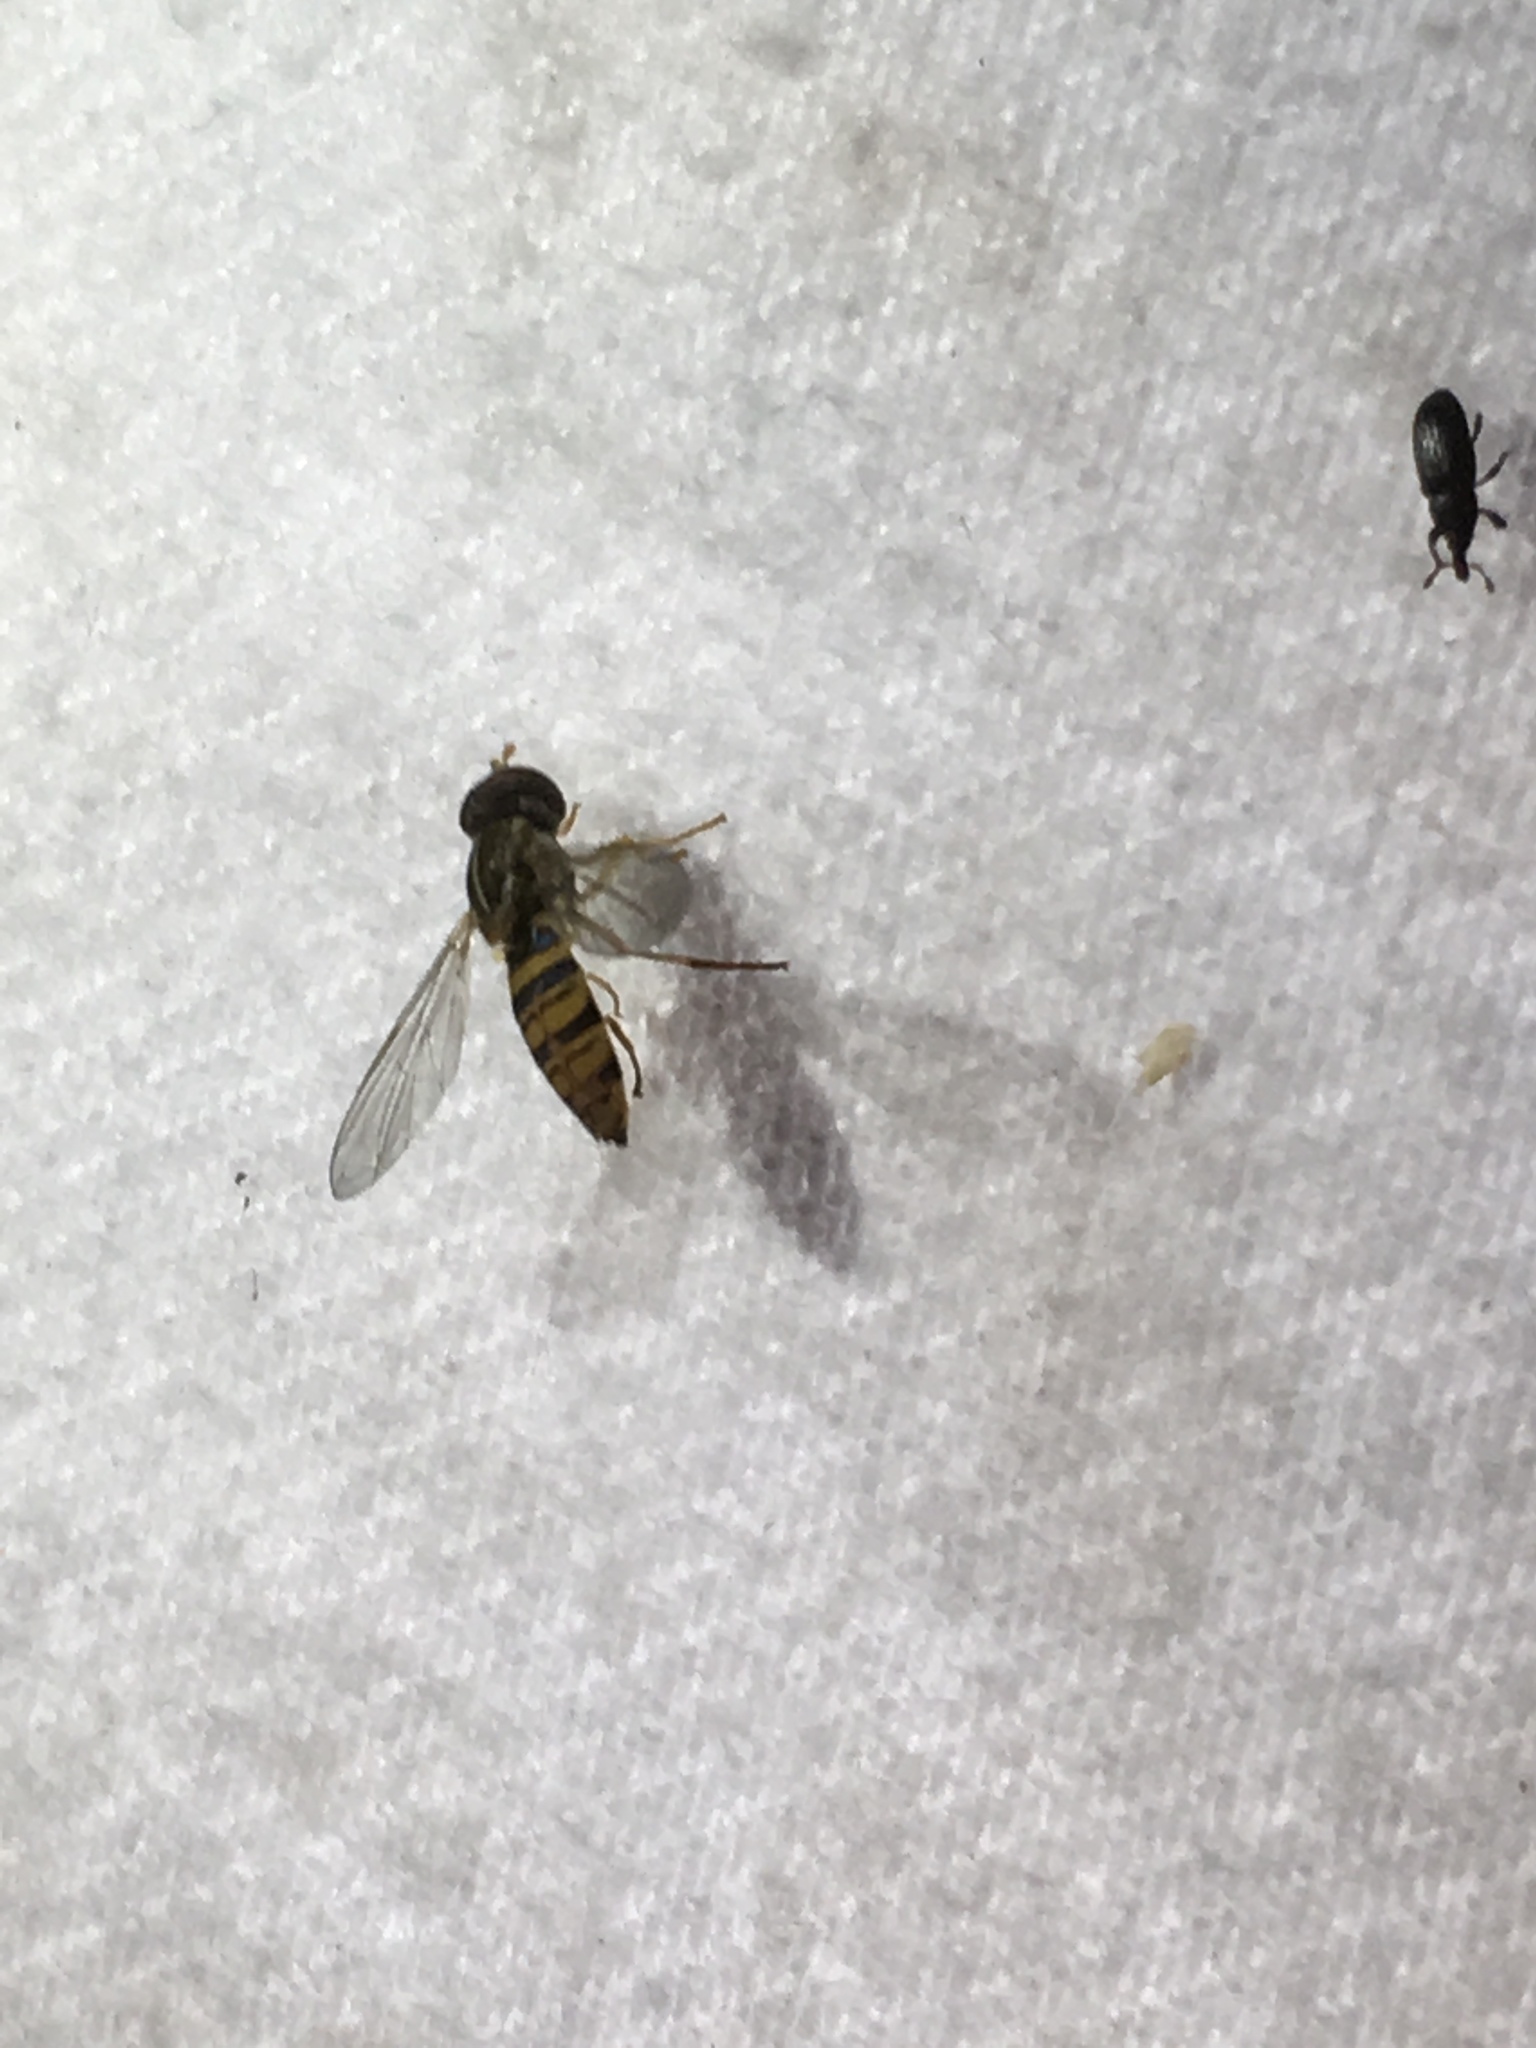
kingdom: Animalia
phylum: Arthropoda
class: Insecta
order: Diptera
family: Syrphidae
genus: Toxomerus
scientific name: Toxomerus politus
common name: Maize calligrapher
